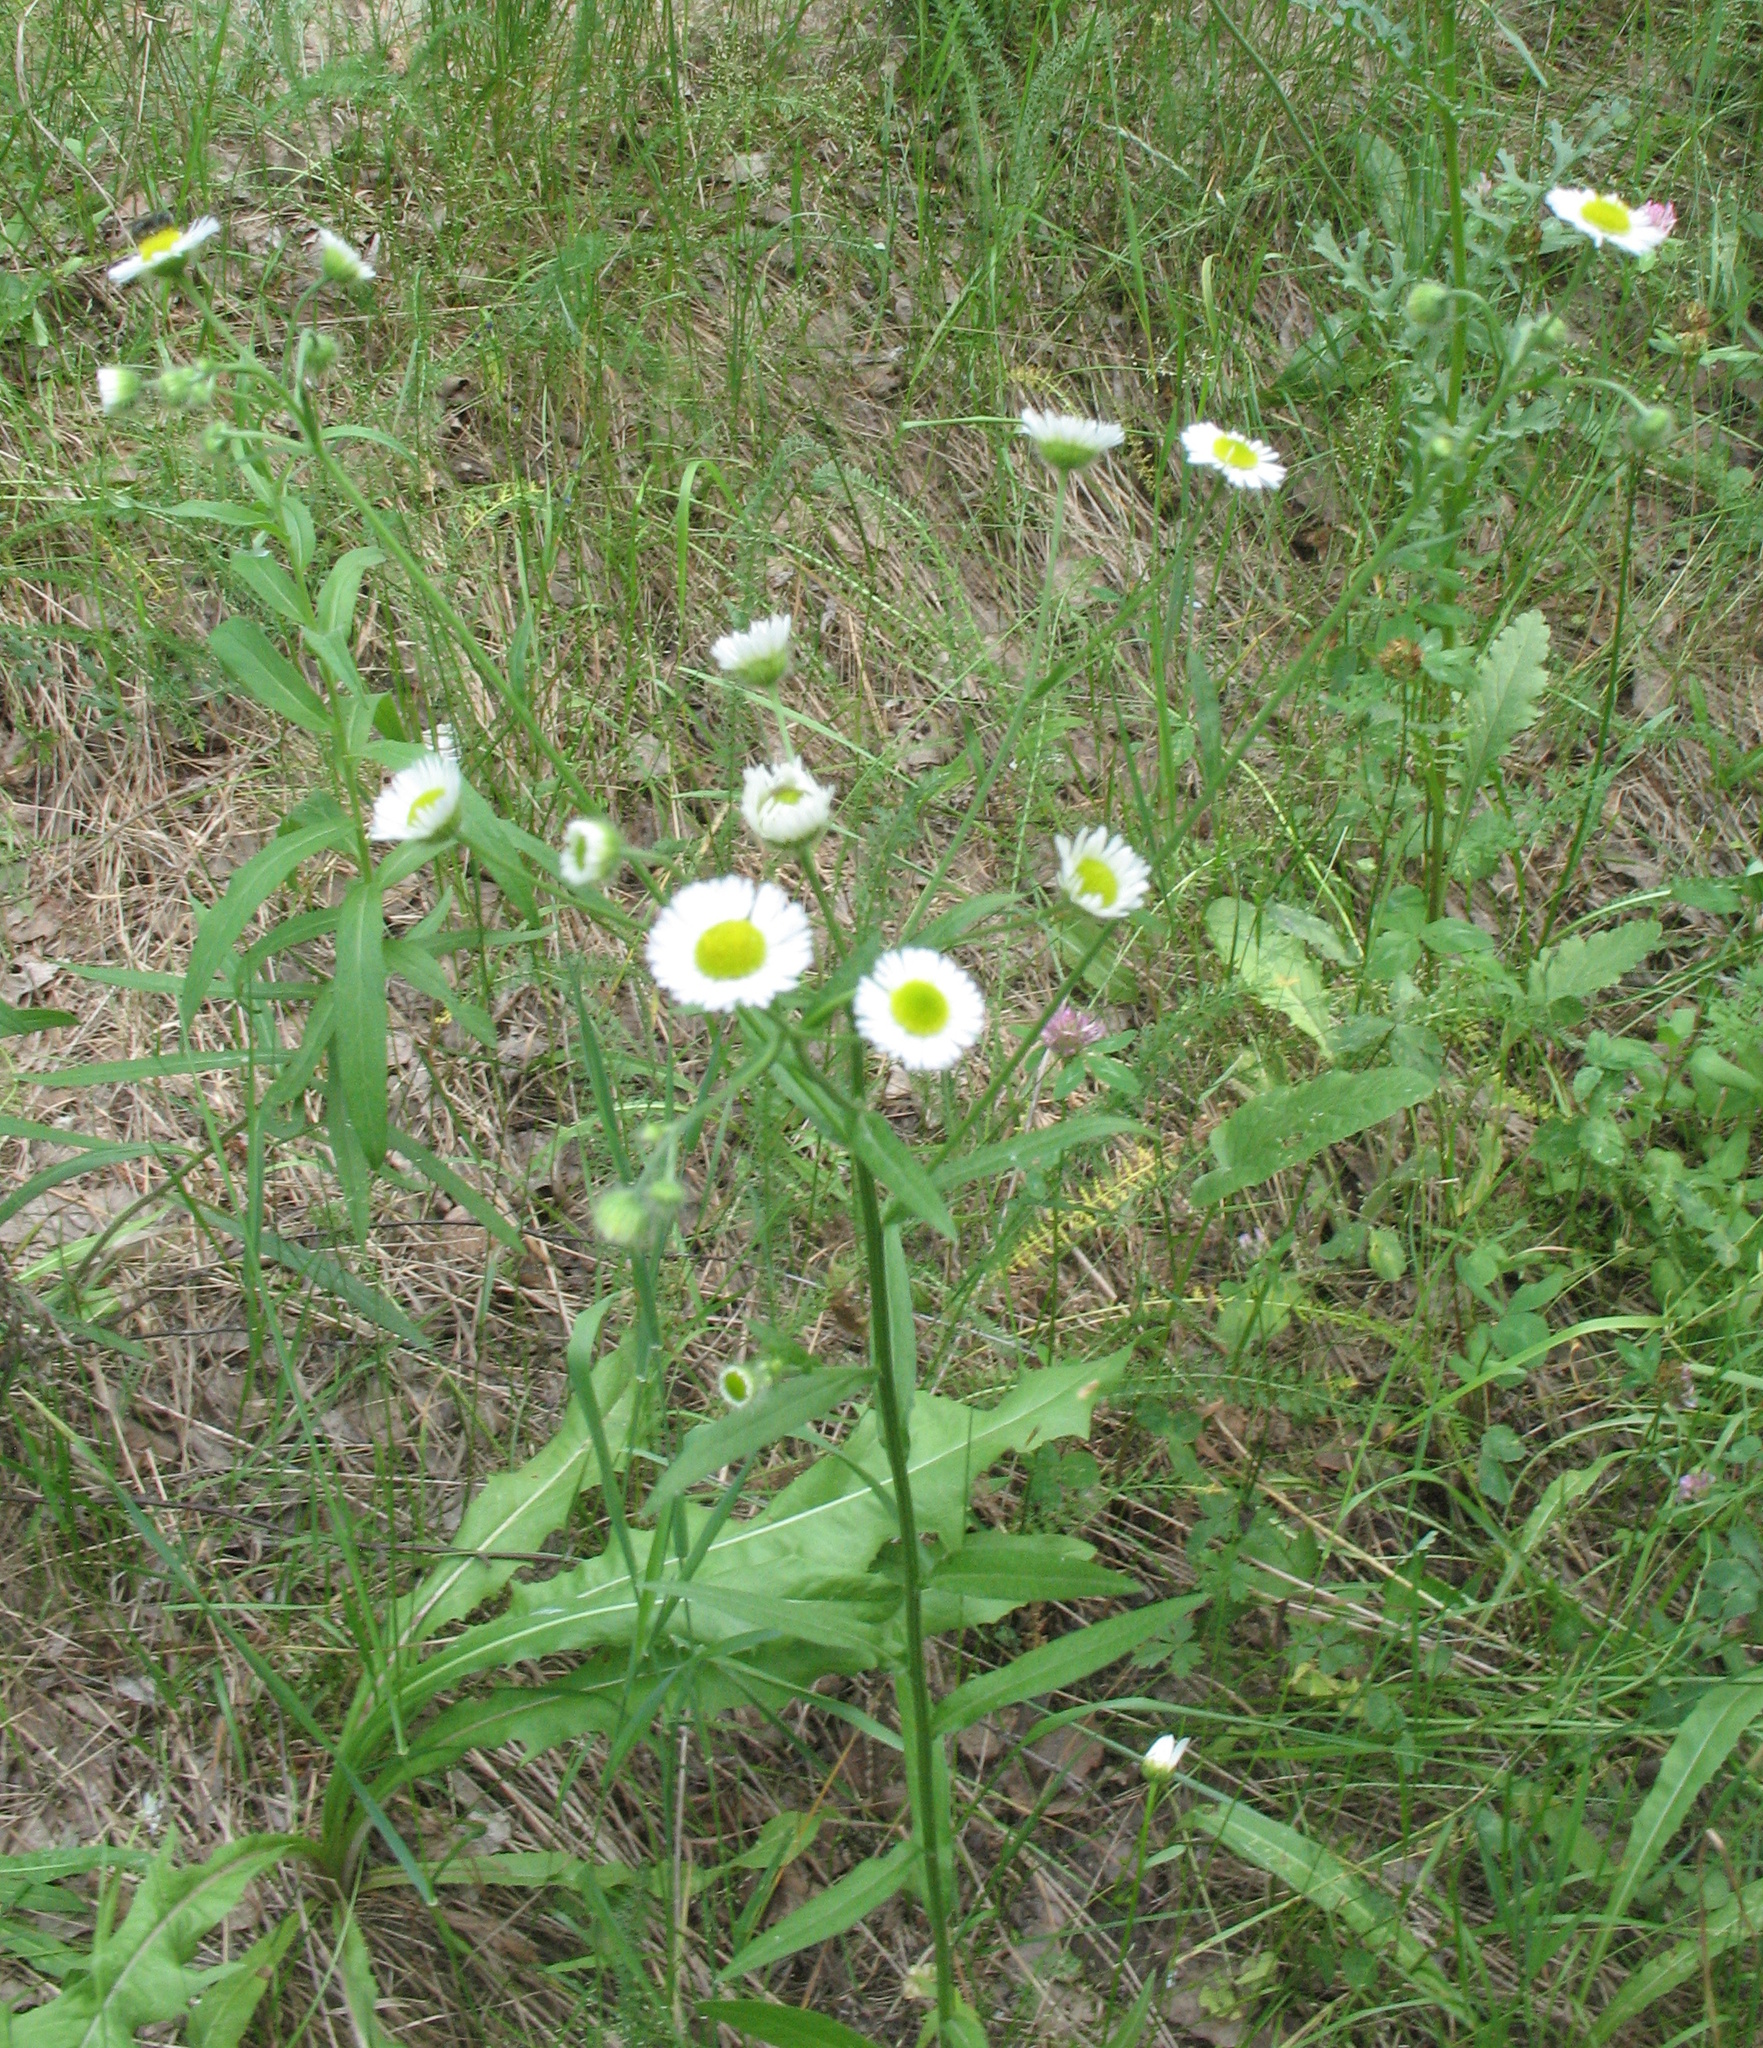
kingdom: Plantae
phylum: Tracheophyta
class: Magnoliopsida
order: Asterales
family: Asteraceae
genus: Erigeron
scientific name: Erigeron annuus
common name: Tall fleabane
